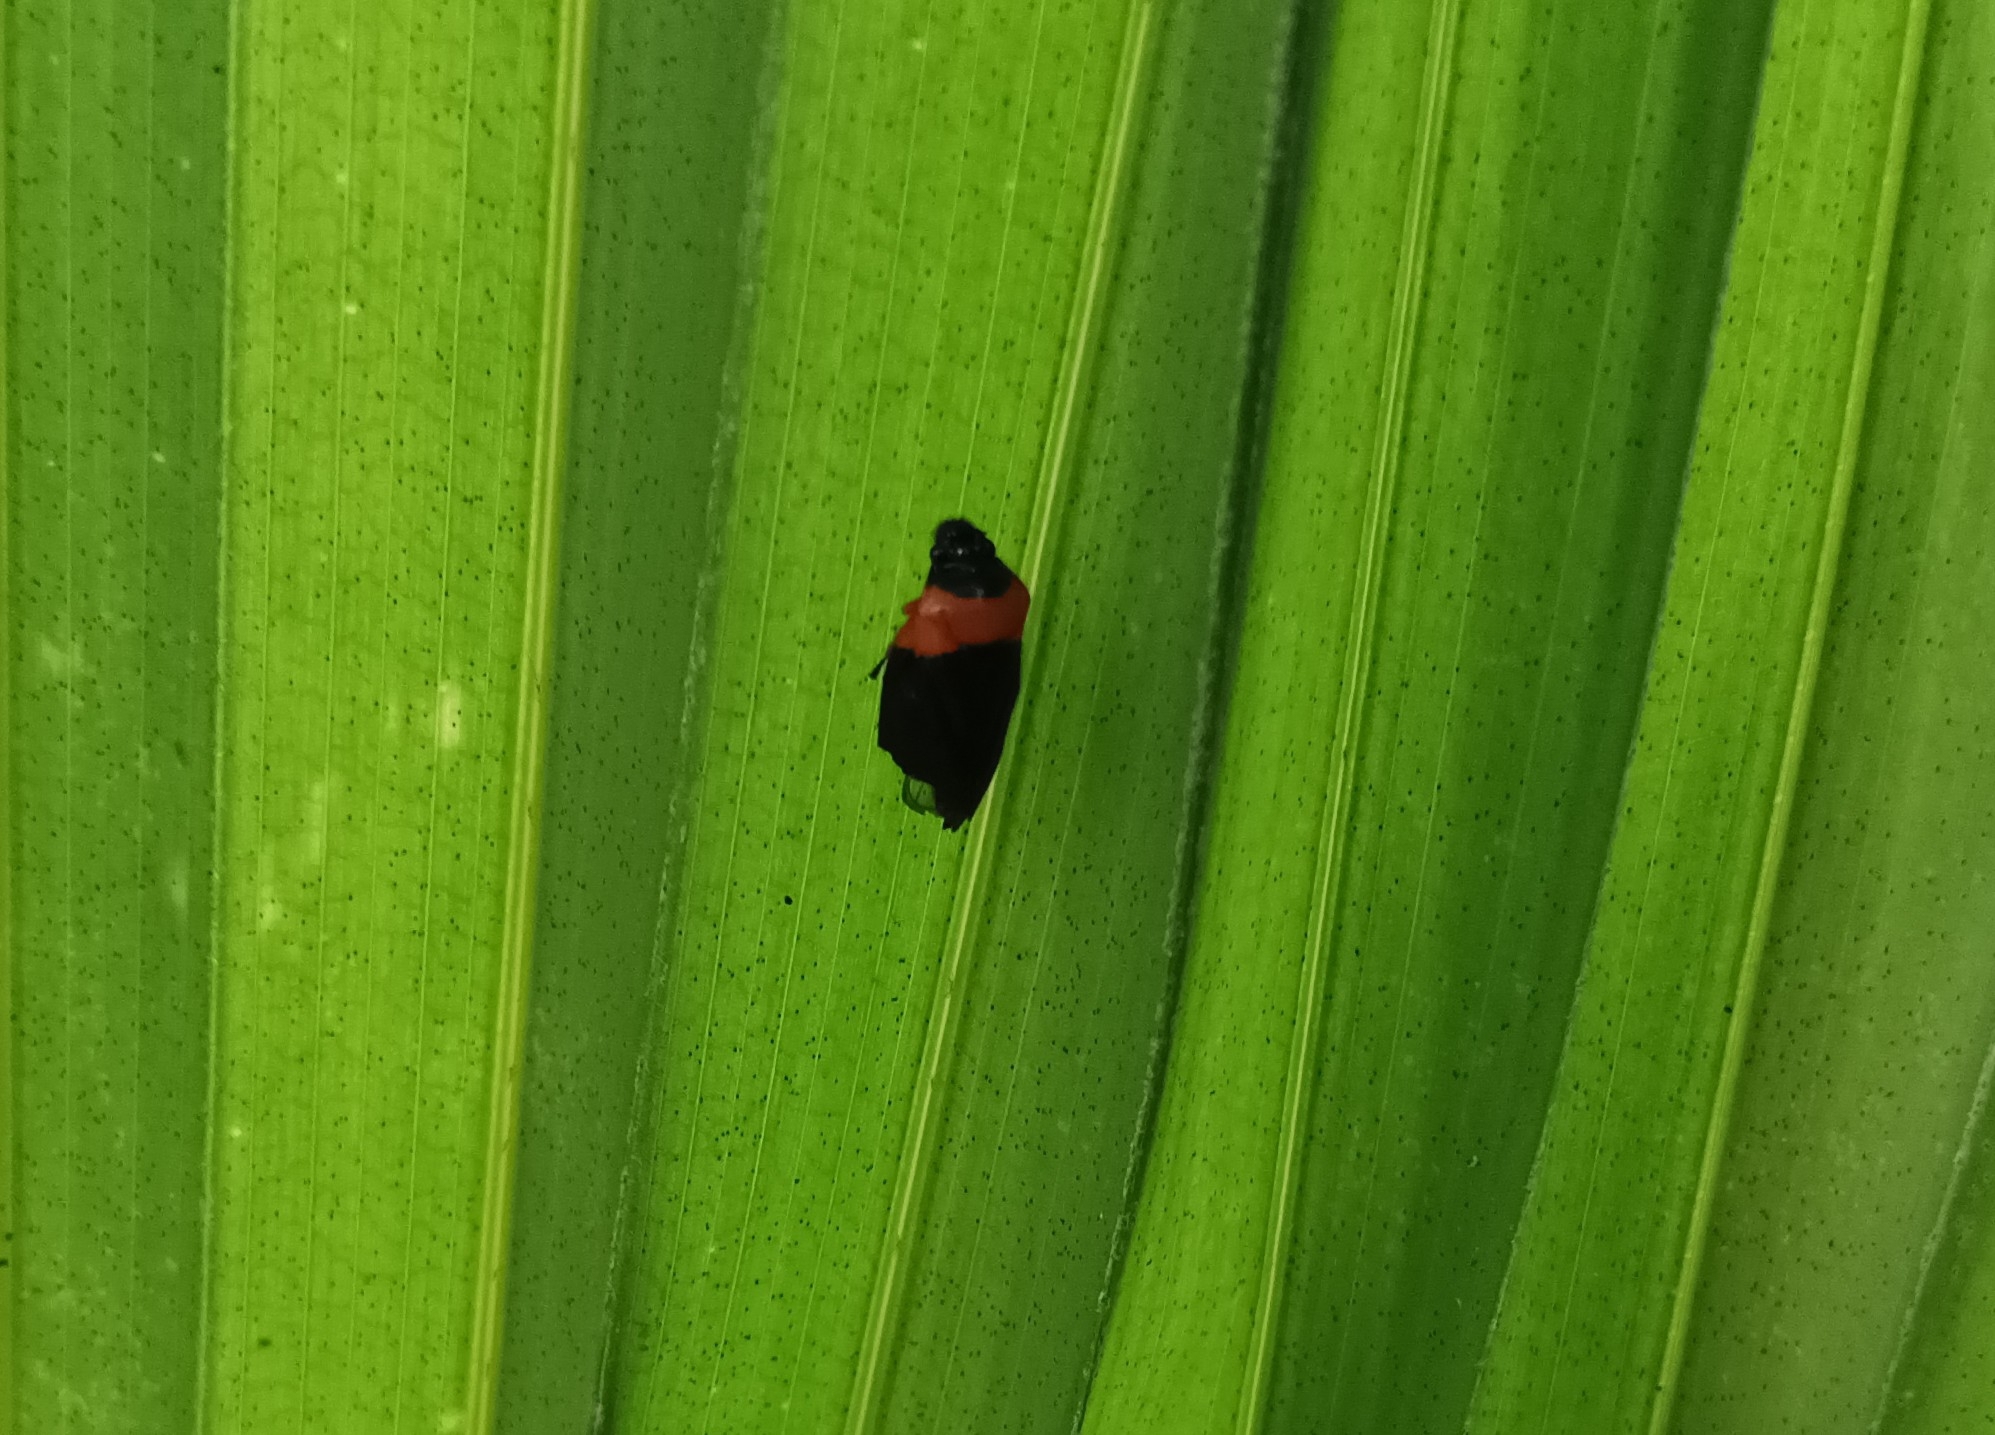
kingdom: Animalia
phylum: Arthropoda
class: Insecta
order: Hemiptera
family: Cercopidae
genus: Phymatostetha
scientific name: Phymatostetha deschampsi
